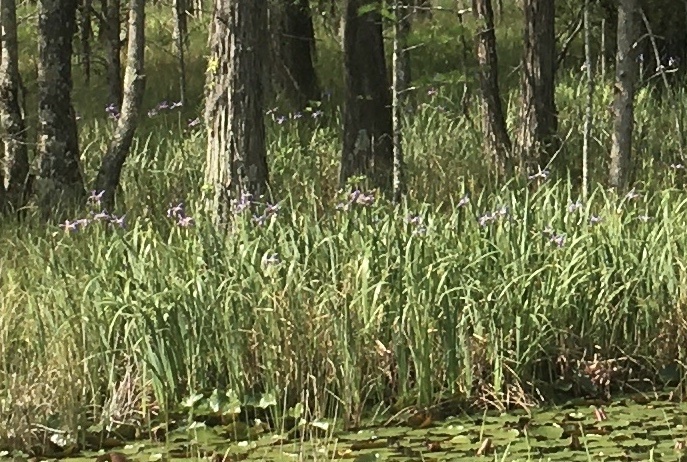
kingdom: Plantae
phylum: Tracheophyta
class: Liliopsida
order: Asparagales
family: Iridaceae
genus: Iris
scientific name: Iris virginica
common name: Southern blue flag
